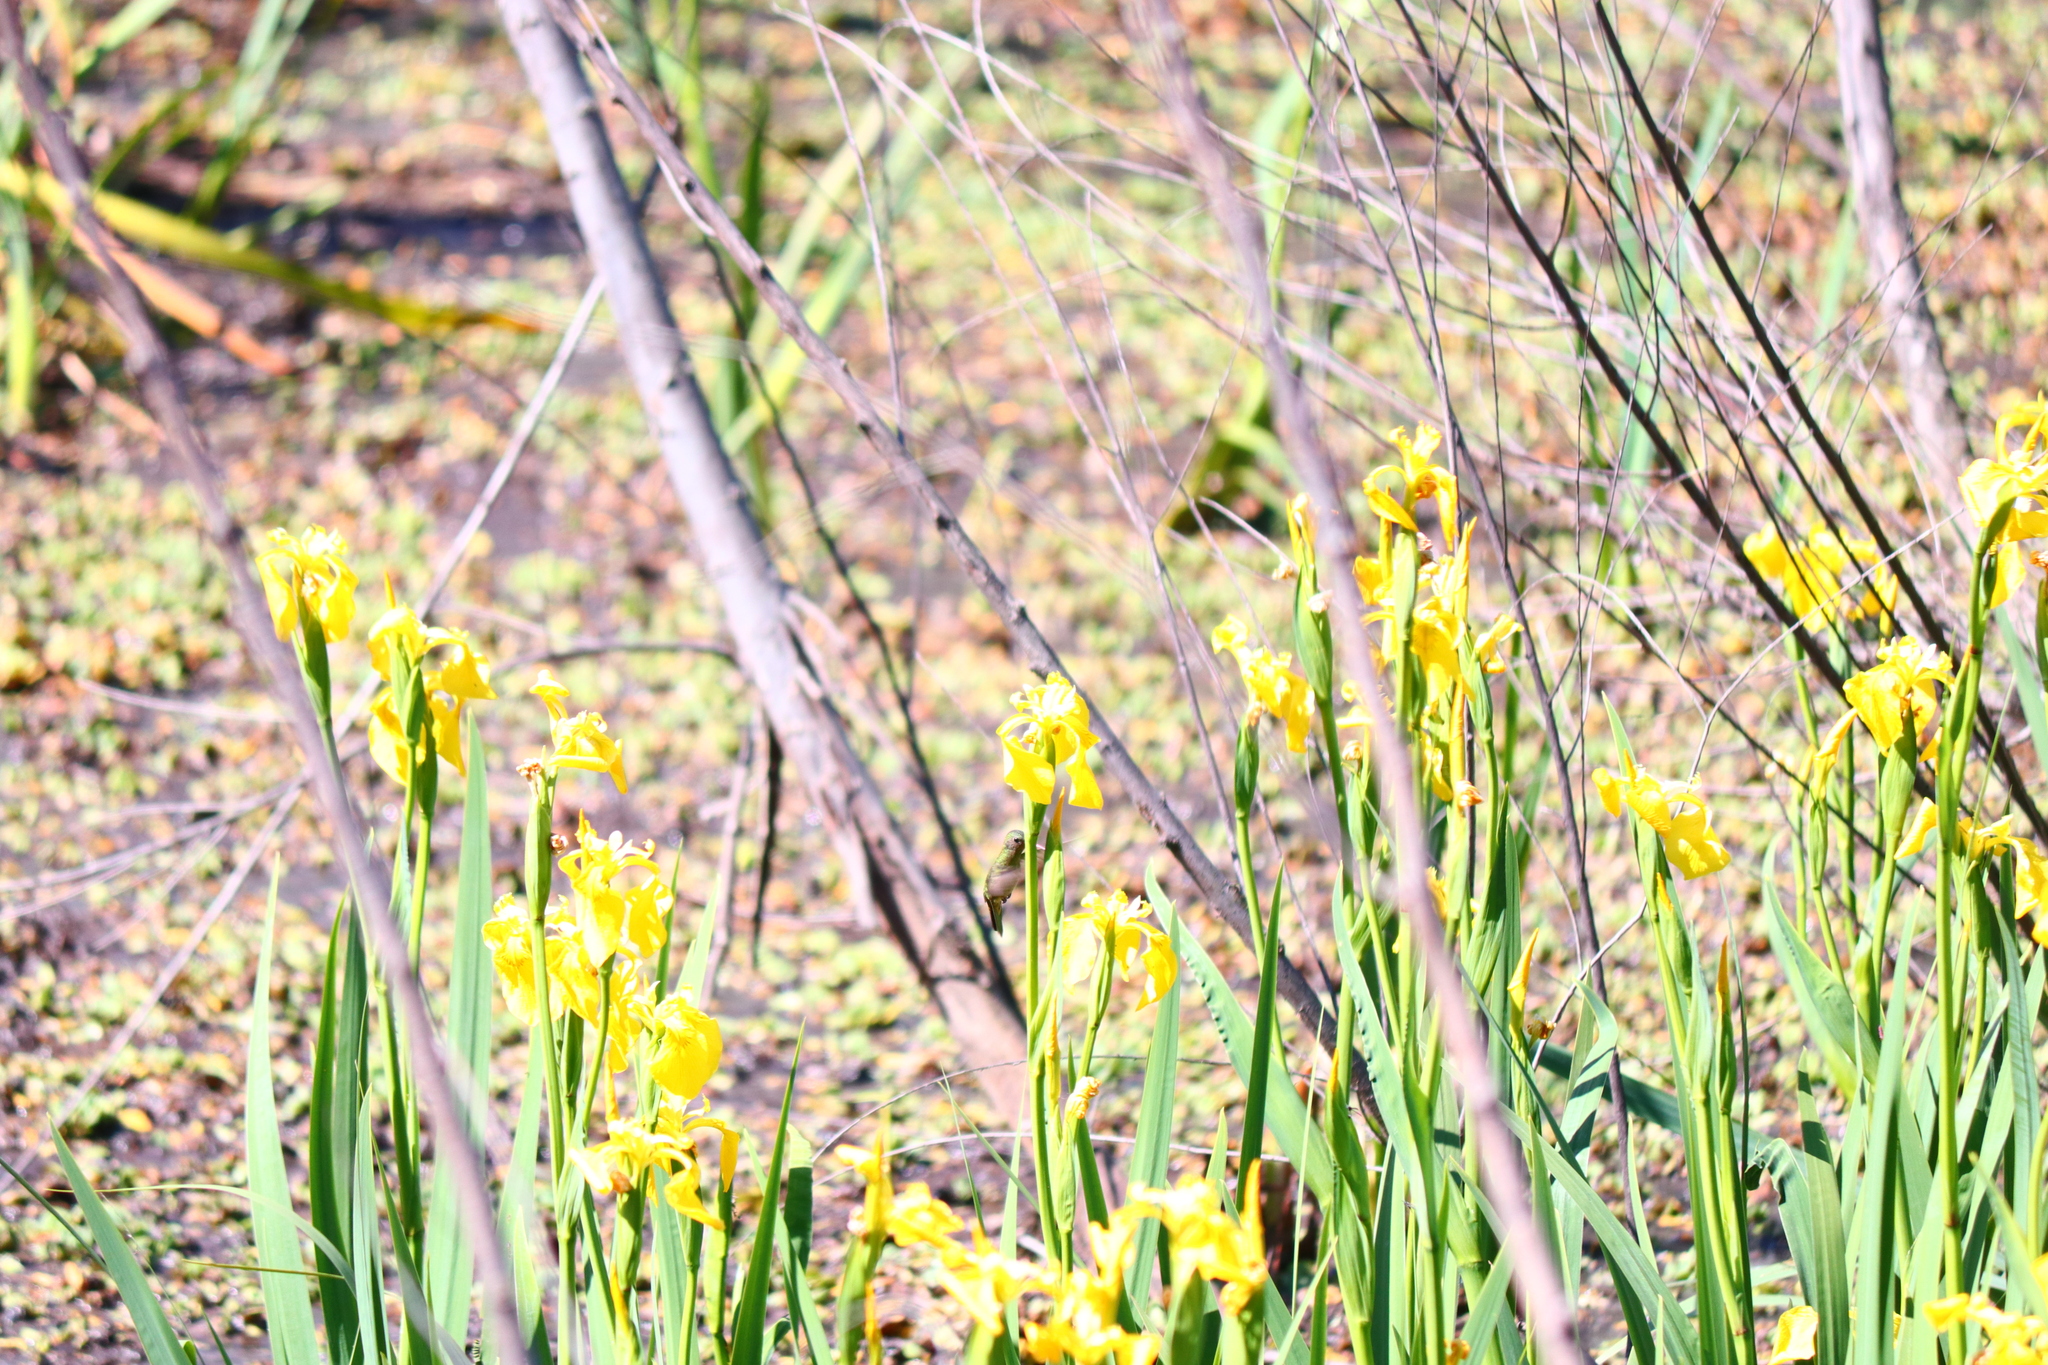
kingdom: Animalia
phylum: Chordata
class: Aves
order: Apodiformes
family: Trochilidae
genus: Hylocharis
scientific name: Hylocharis chrysura
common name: Gilded sapphire
